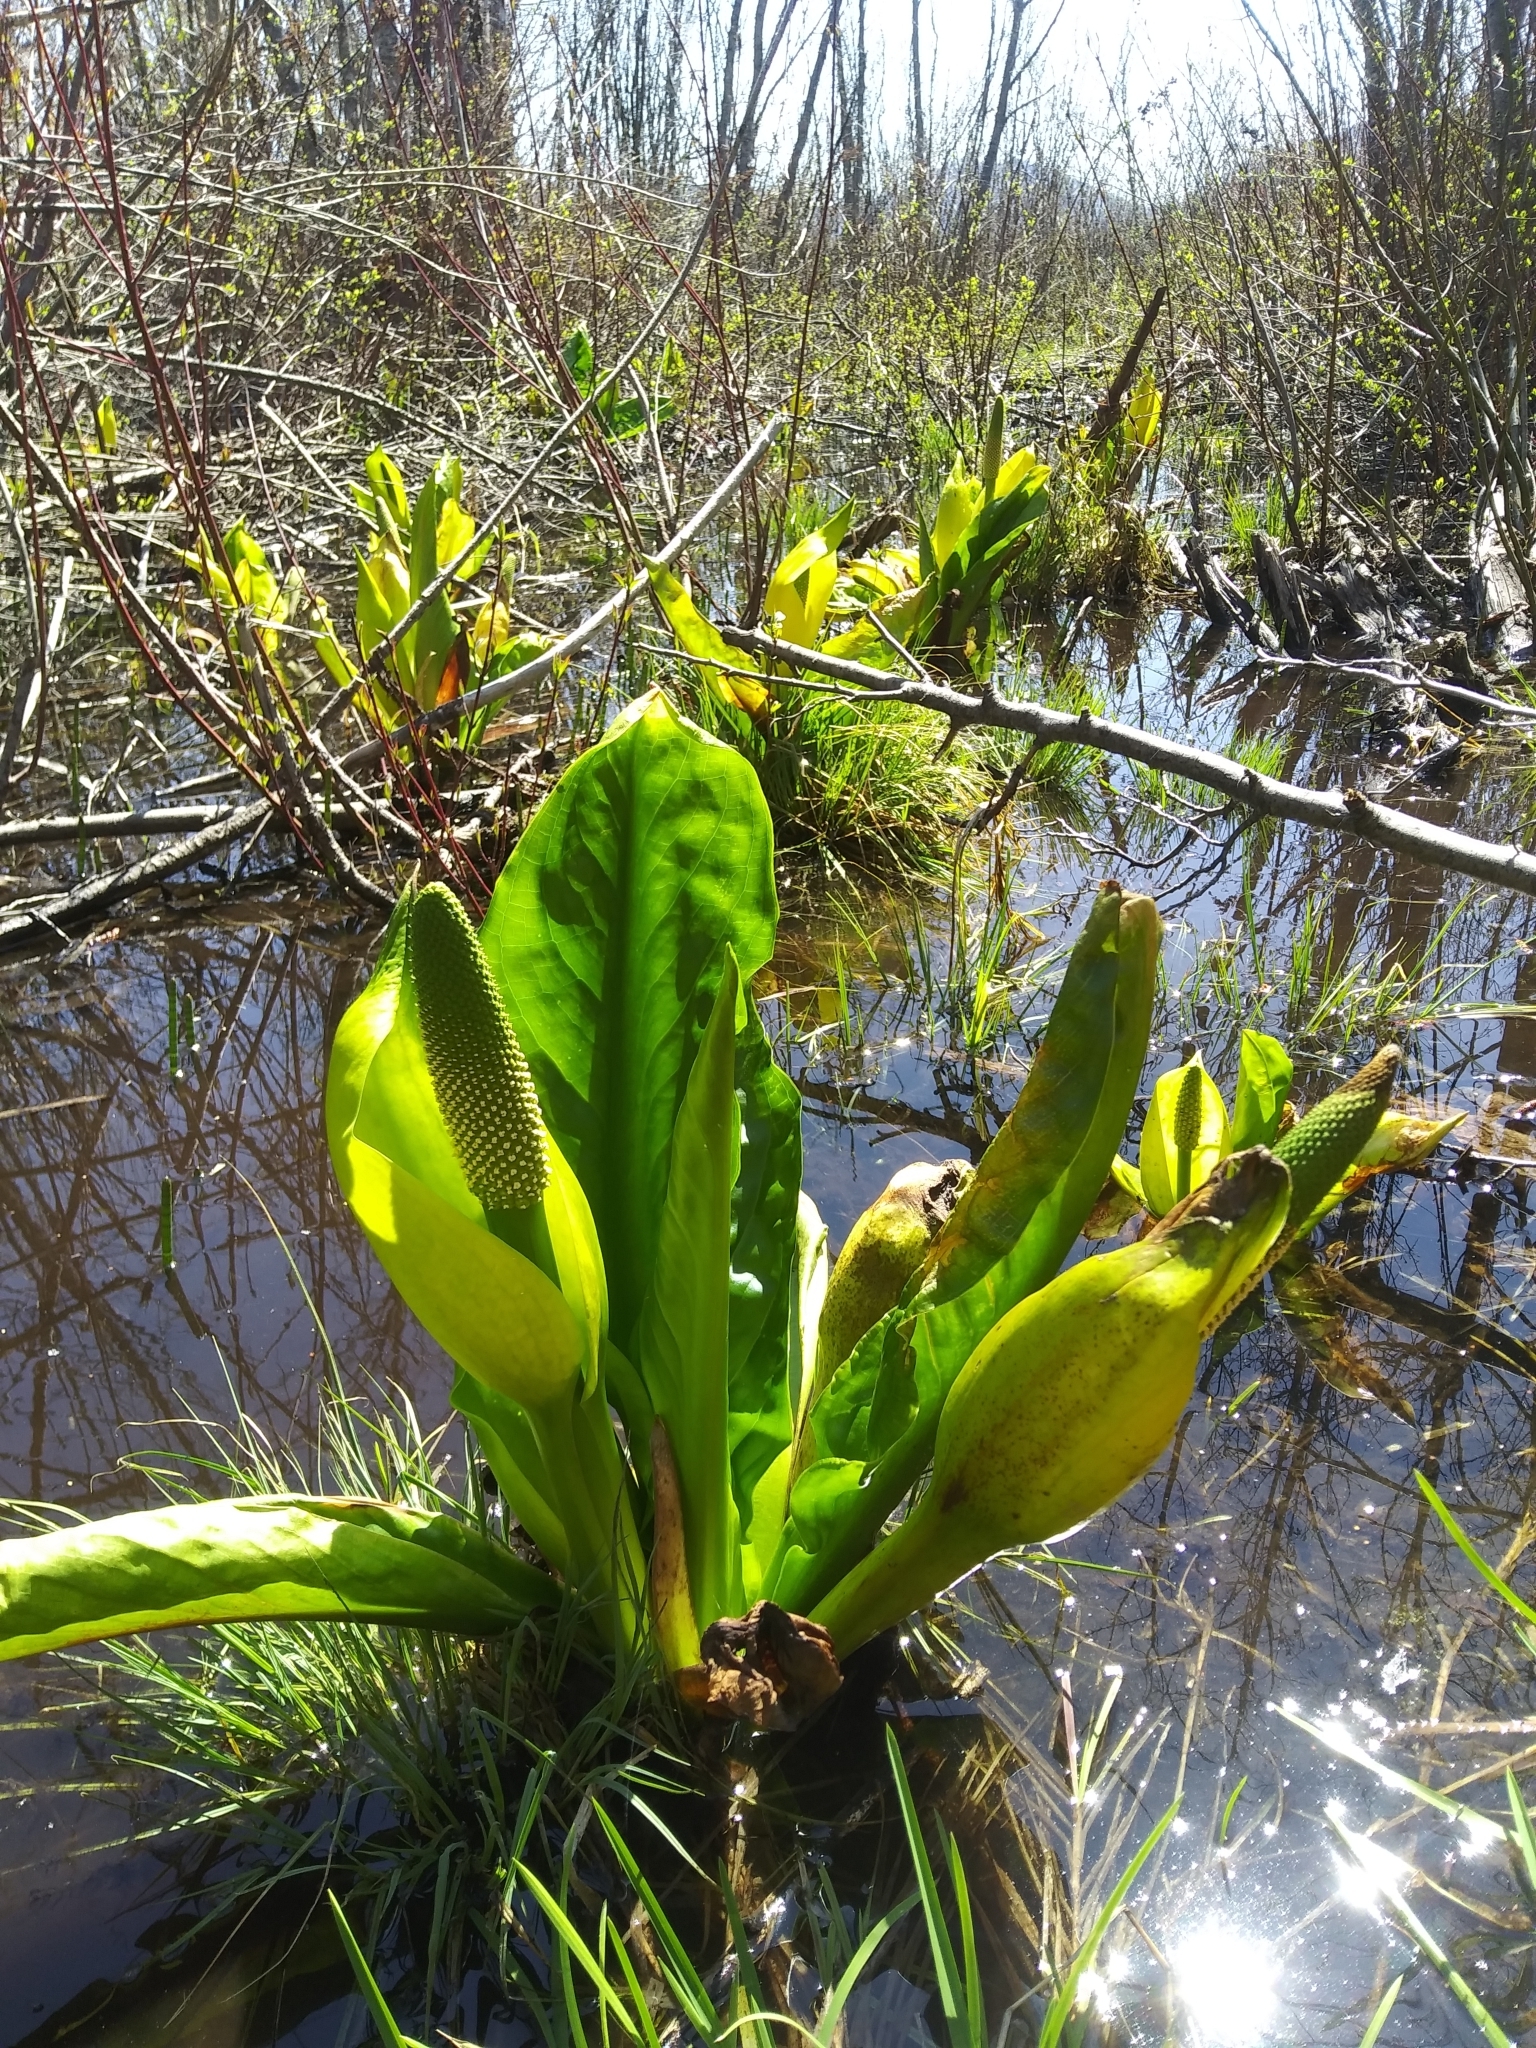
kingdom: Plantae
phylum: Tracheophyta
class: Liliopsida
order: Alismatales
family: Araceae
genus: Lysichiton
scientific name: Lysichiton americanus
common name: American skunk cabbage
